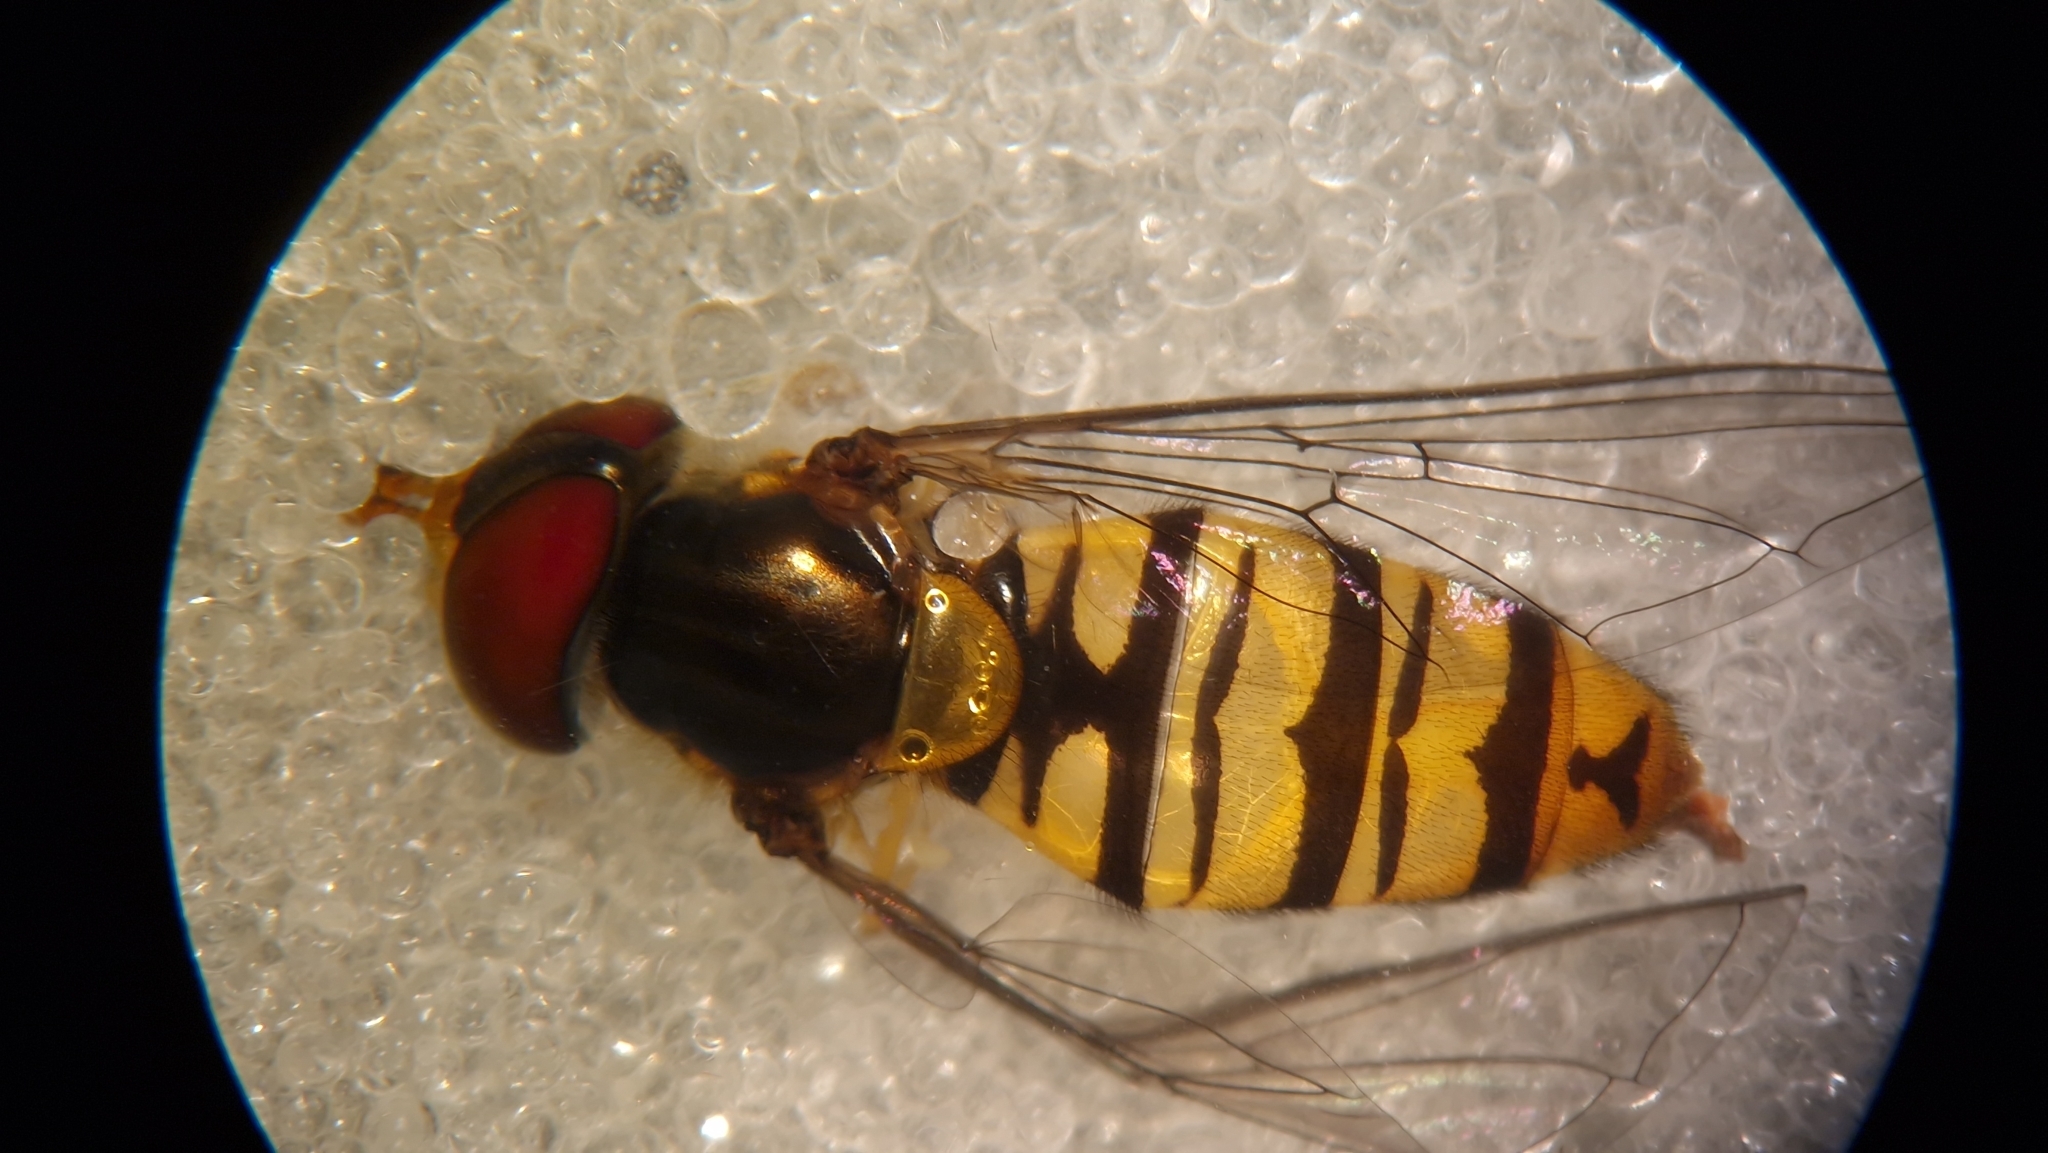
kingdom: Animalia
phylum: Arthropoda
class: Insecta
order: Diptera
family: Syrphidae
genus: Episyrphus
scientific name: Episyrphus balteatus
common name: Marmalade hoverfly
